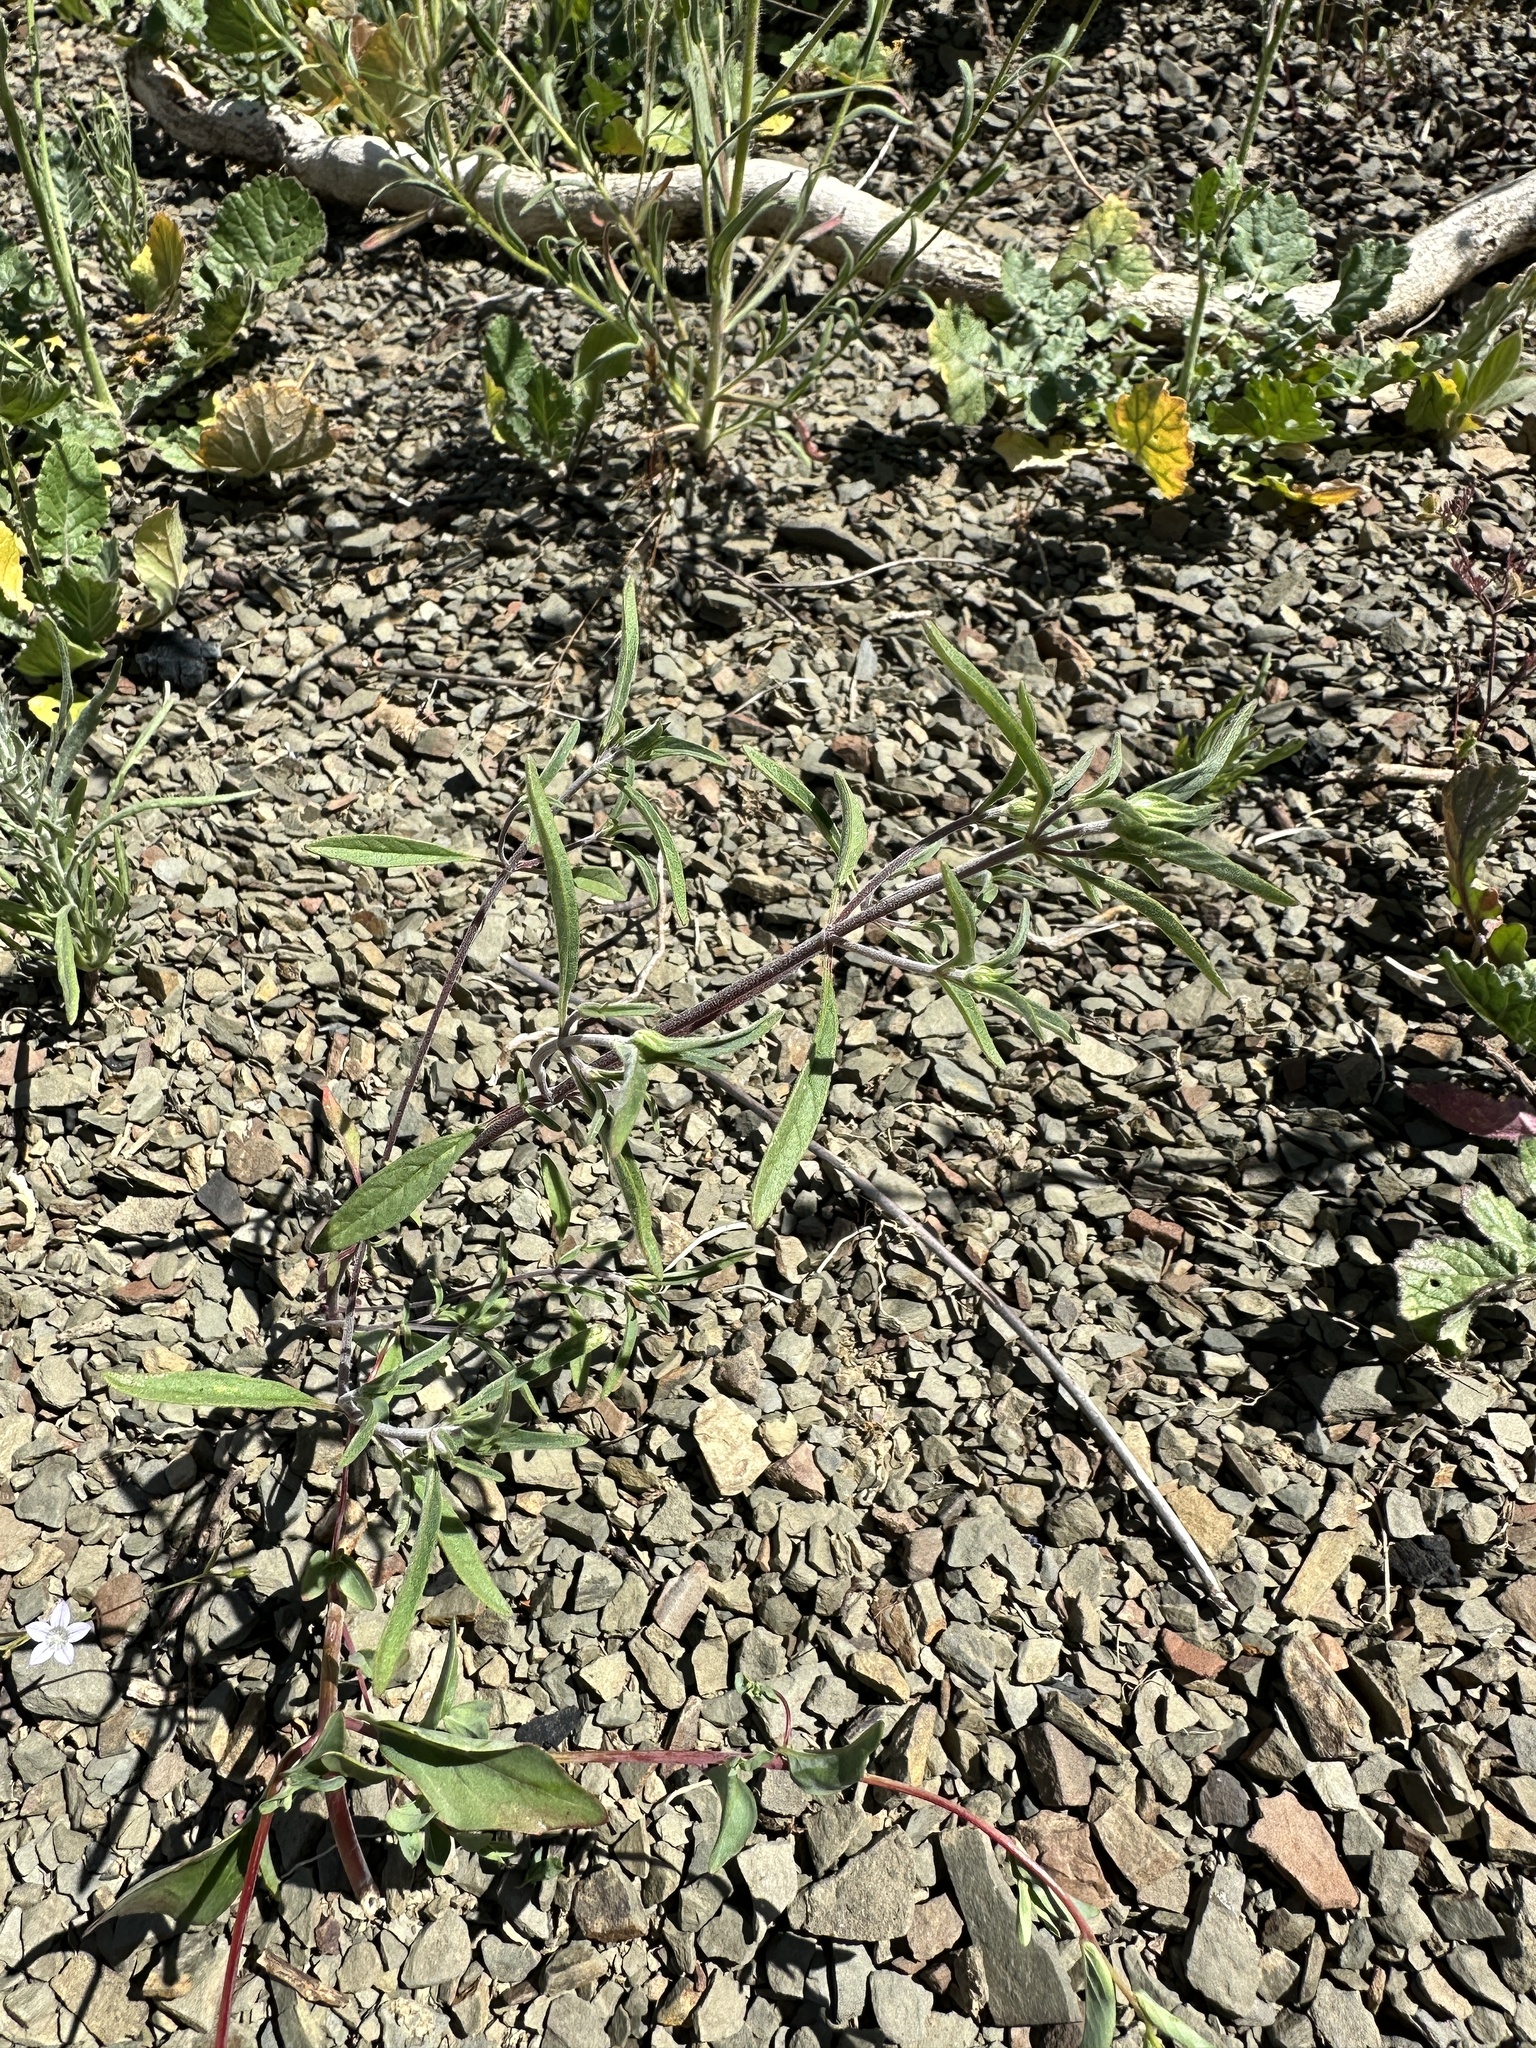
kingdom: Plantae
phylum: Tracheophyta
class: Magnoliopsida
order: Lamiales
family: Lamiaceae
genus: Monardella
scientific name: Monardella douglasii
